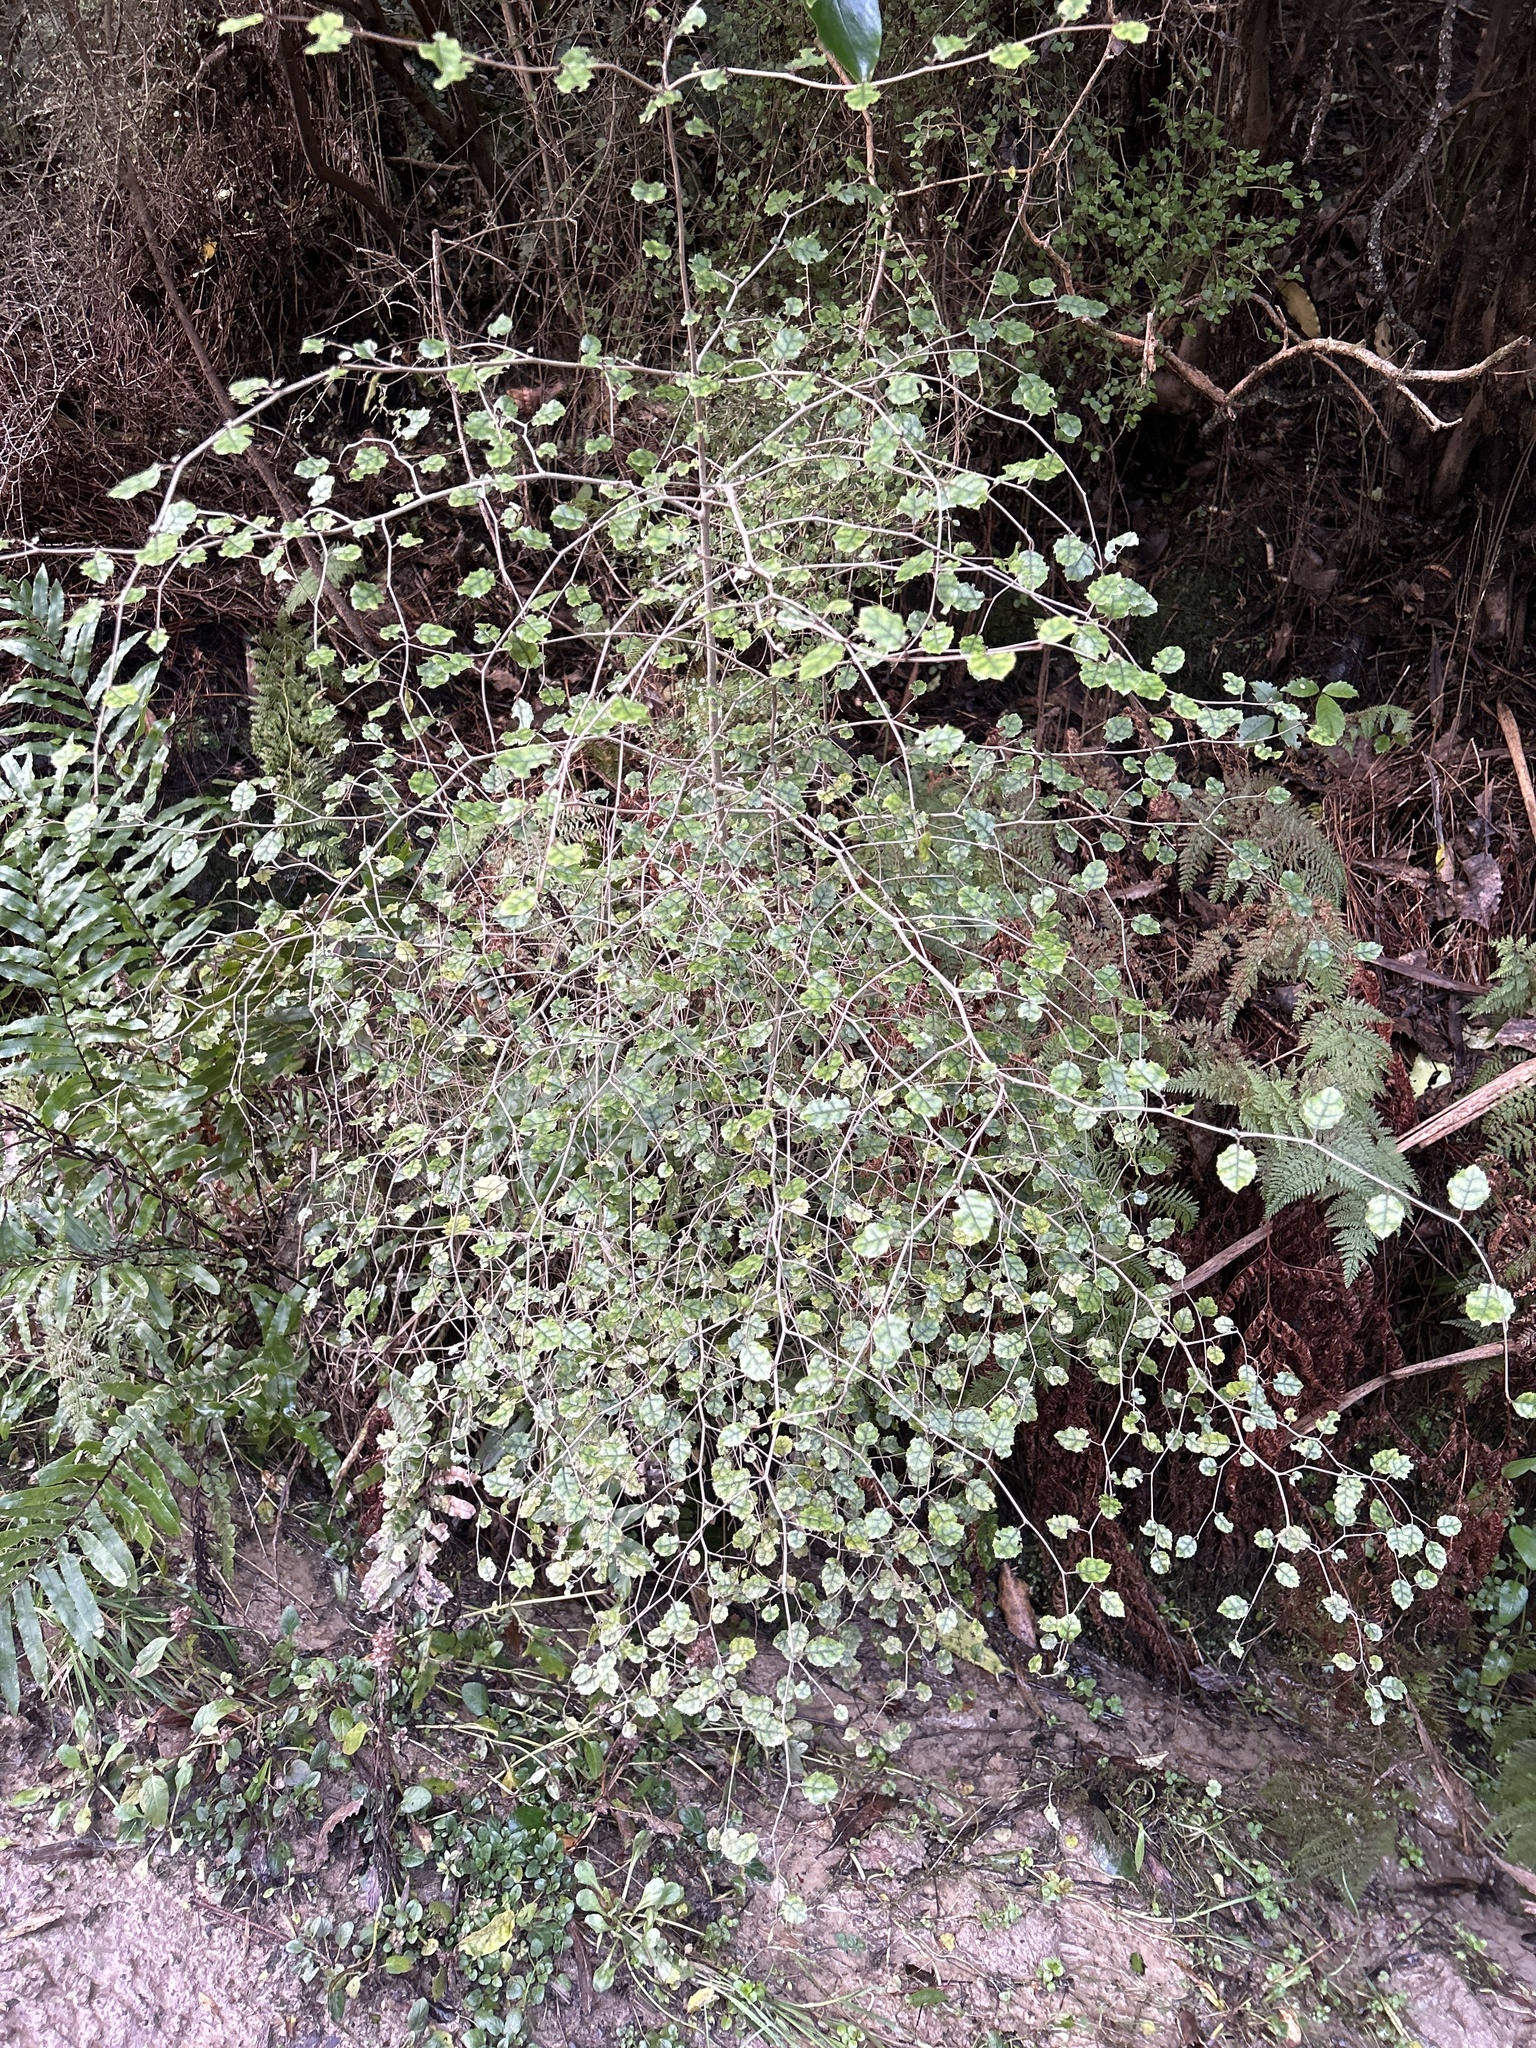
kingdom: Plantae
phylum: Tracheophyta
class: Magnoliopsida
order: Asterales
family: Rousseaceae
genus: Carpodetus
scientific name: Carpodetus serratus
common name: White mapau
